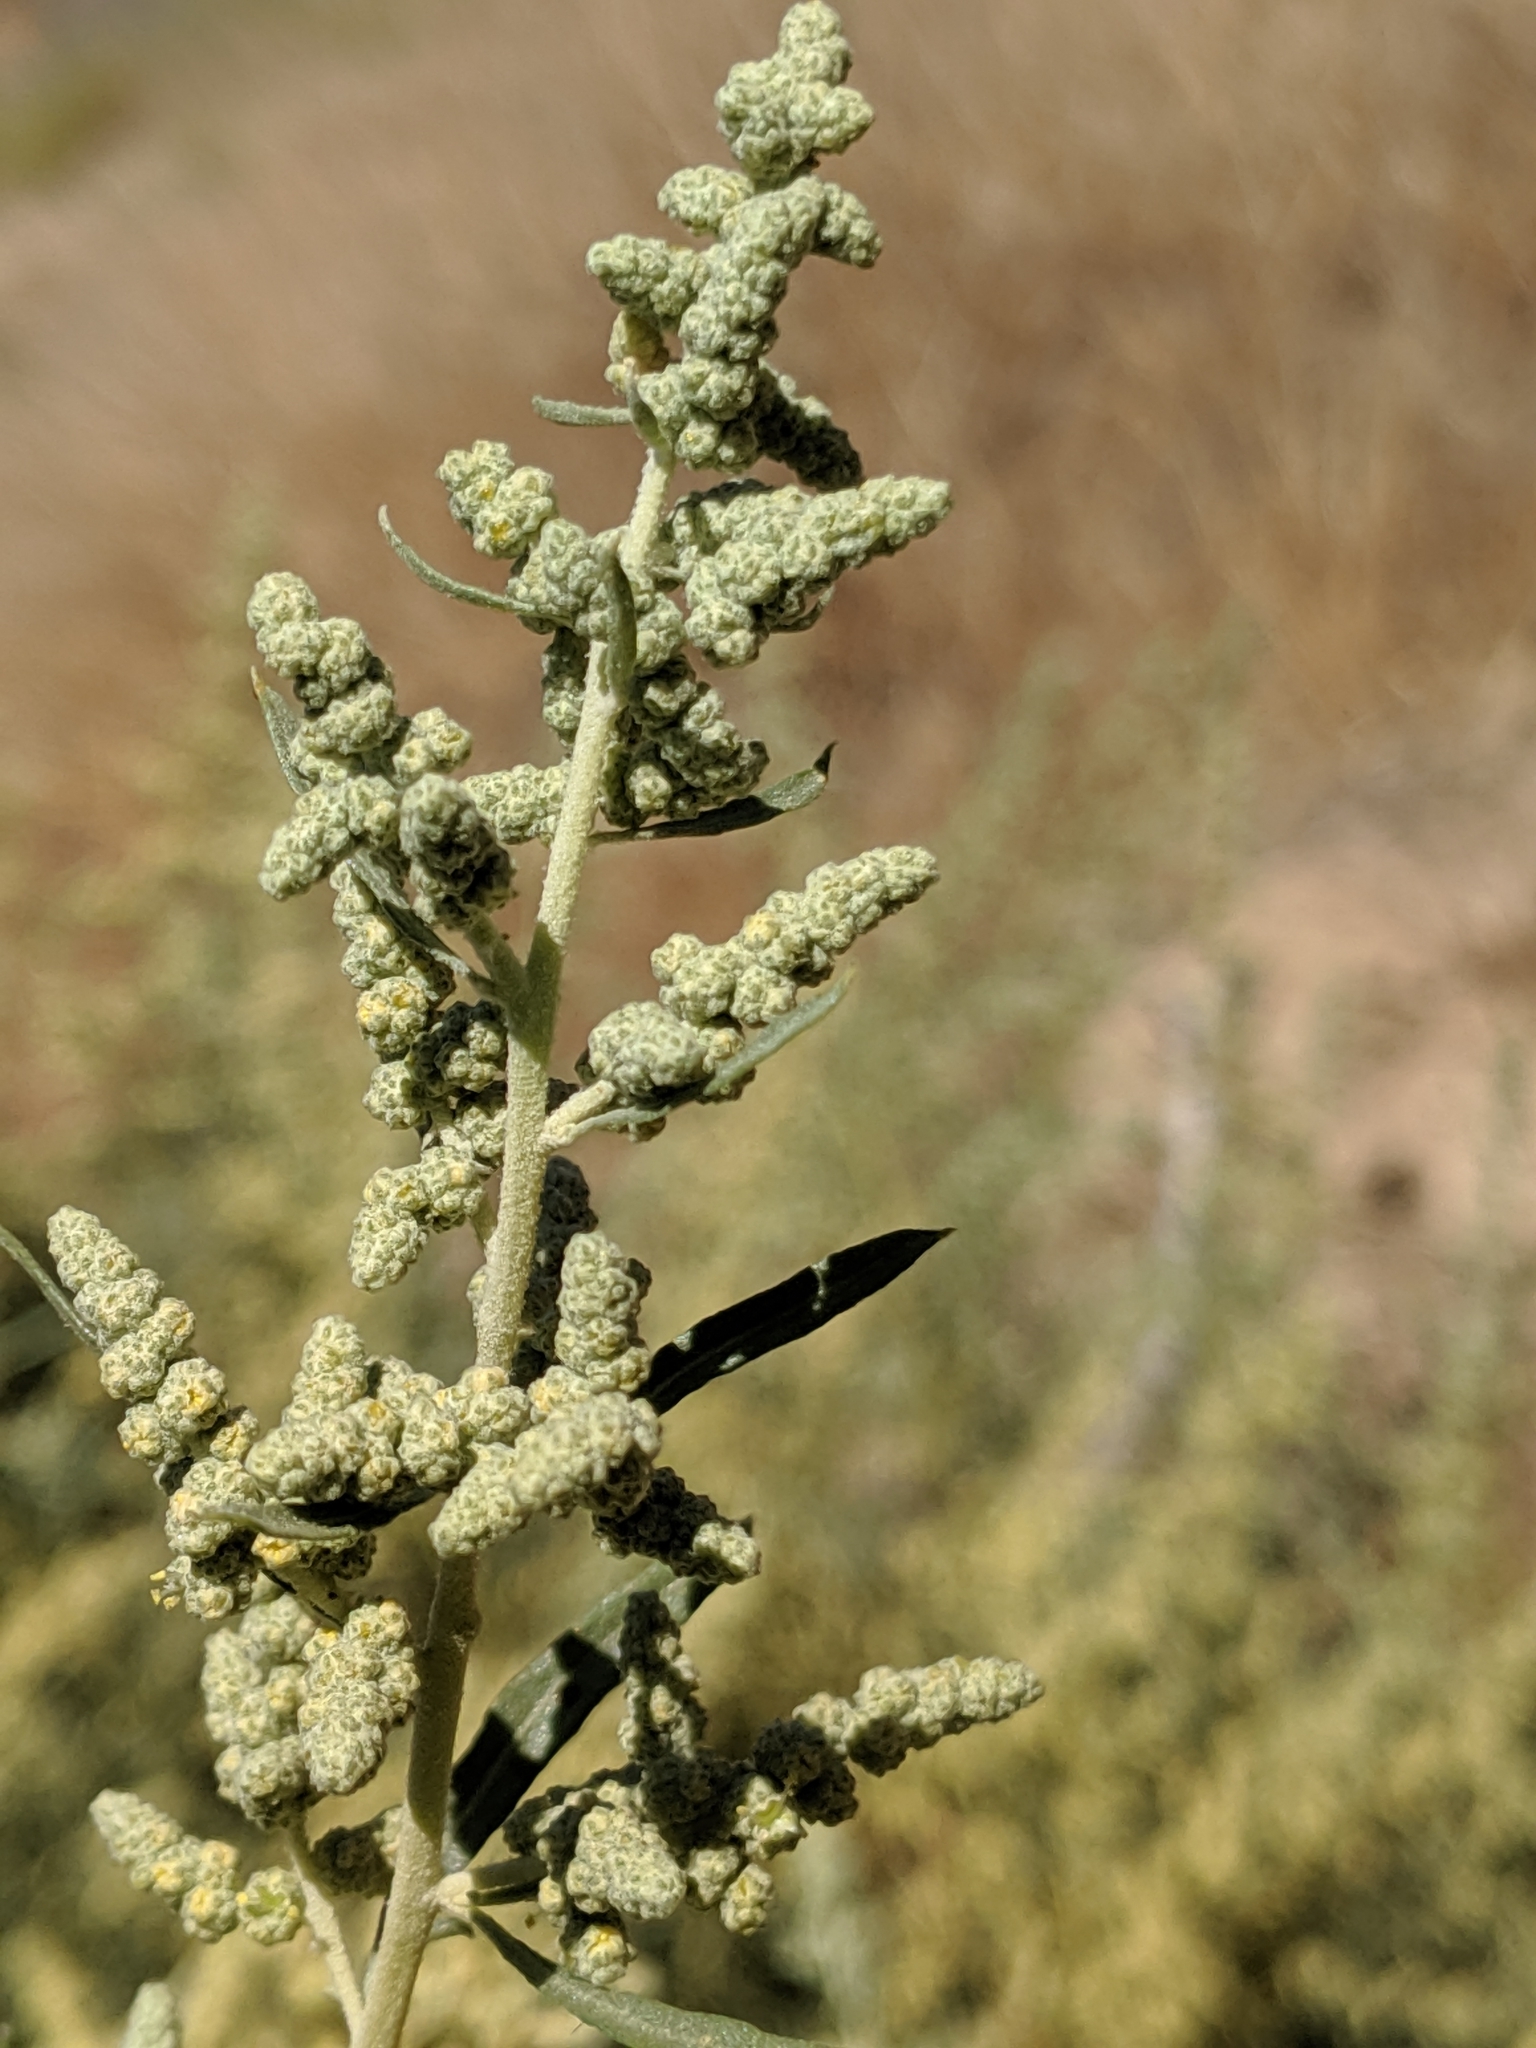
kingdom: Plantae
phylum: Tracheophyta
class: Magnoliopsida
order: Caryophyllales
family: Amaranthaceae
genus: Atriplex
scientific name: Atriplex canescens
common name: Four-wing saltbush
